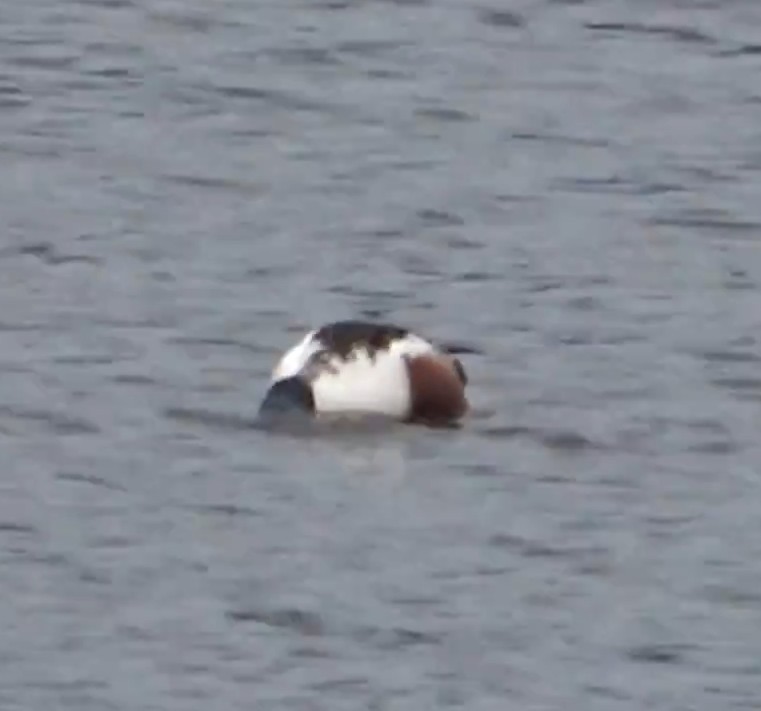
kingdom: Animalia
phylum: Chordata
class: Aves
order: Anseriformes
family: Anatidae
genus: Spatula
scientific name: Spatula clypeata
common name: Northern shoveler
